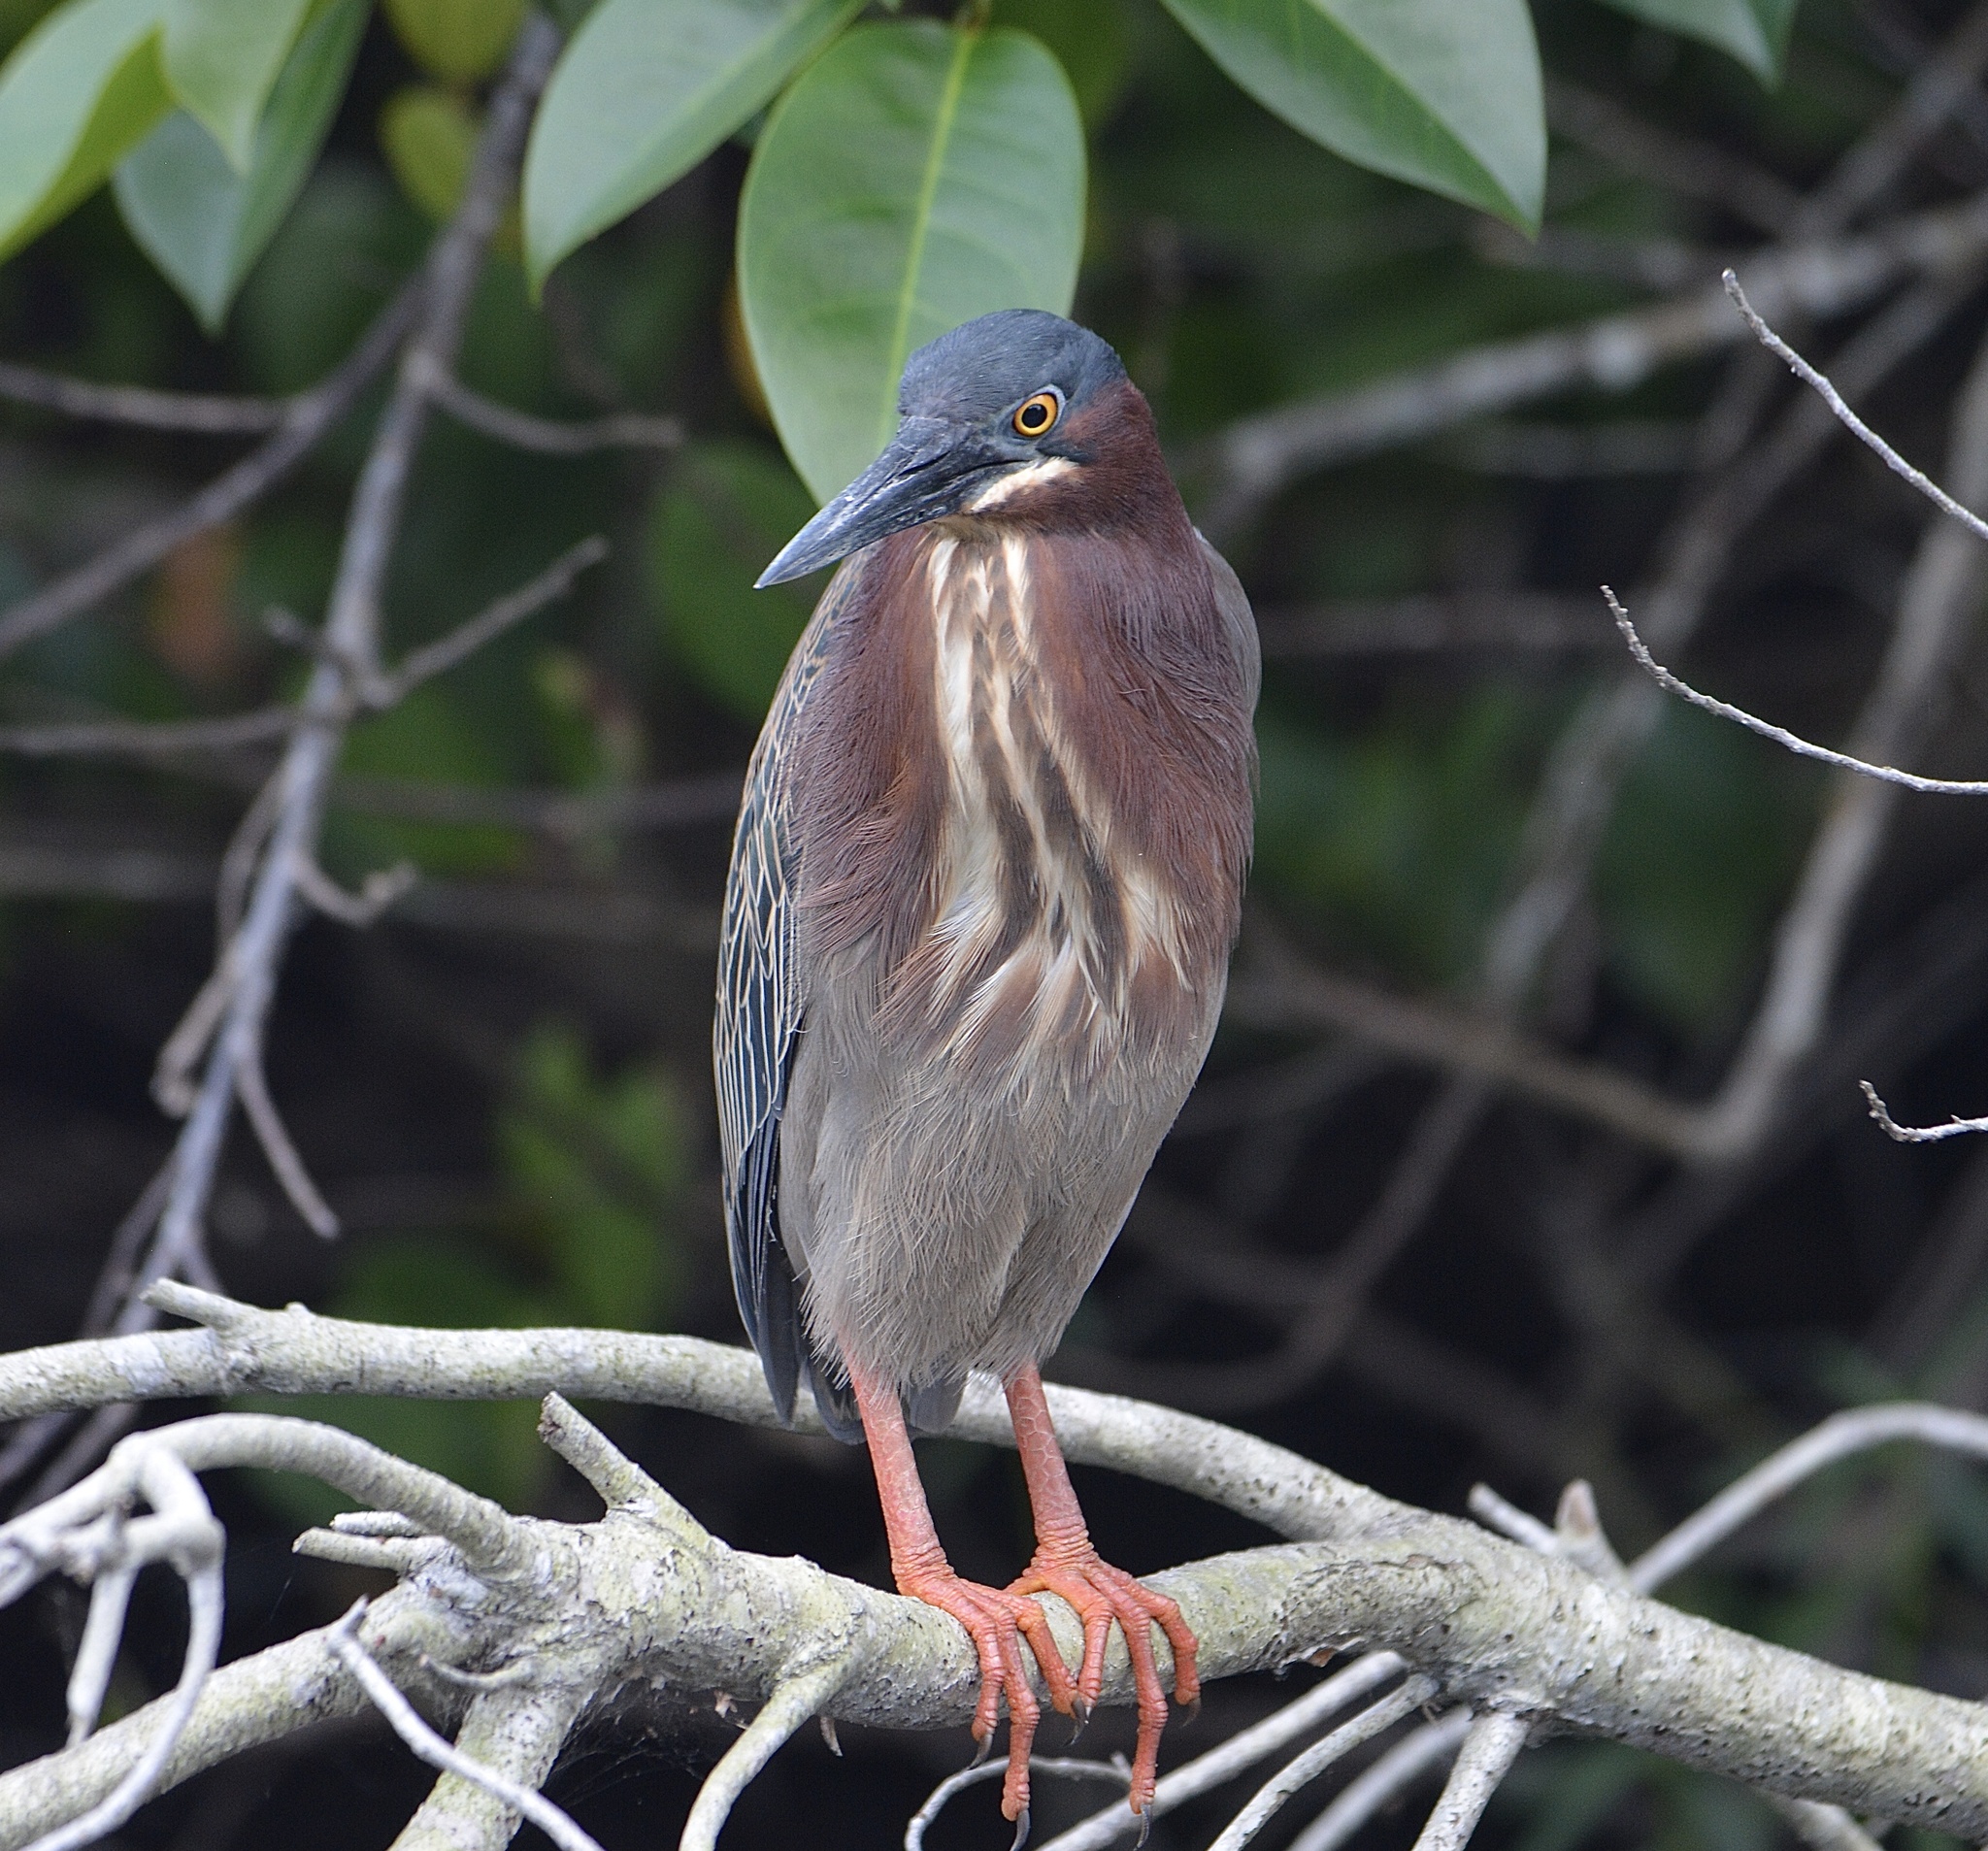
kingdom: Animalia
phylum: Chordata
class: Aves
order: Pelecaniformes
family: Ardeidae
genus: Butorides
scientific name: Butorides virescens
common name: Green heron
